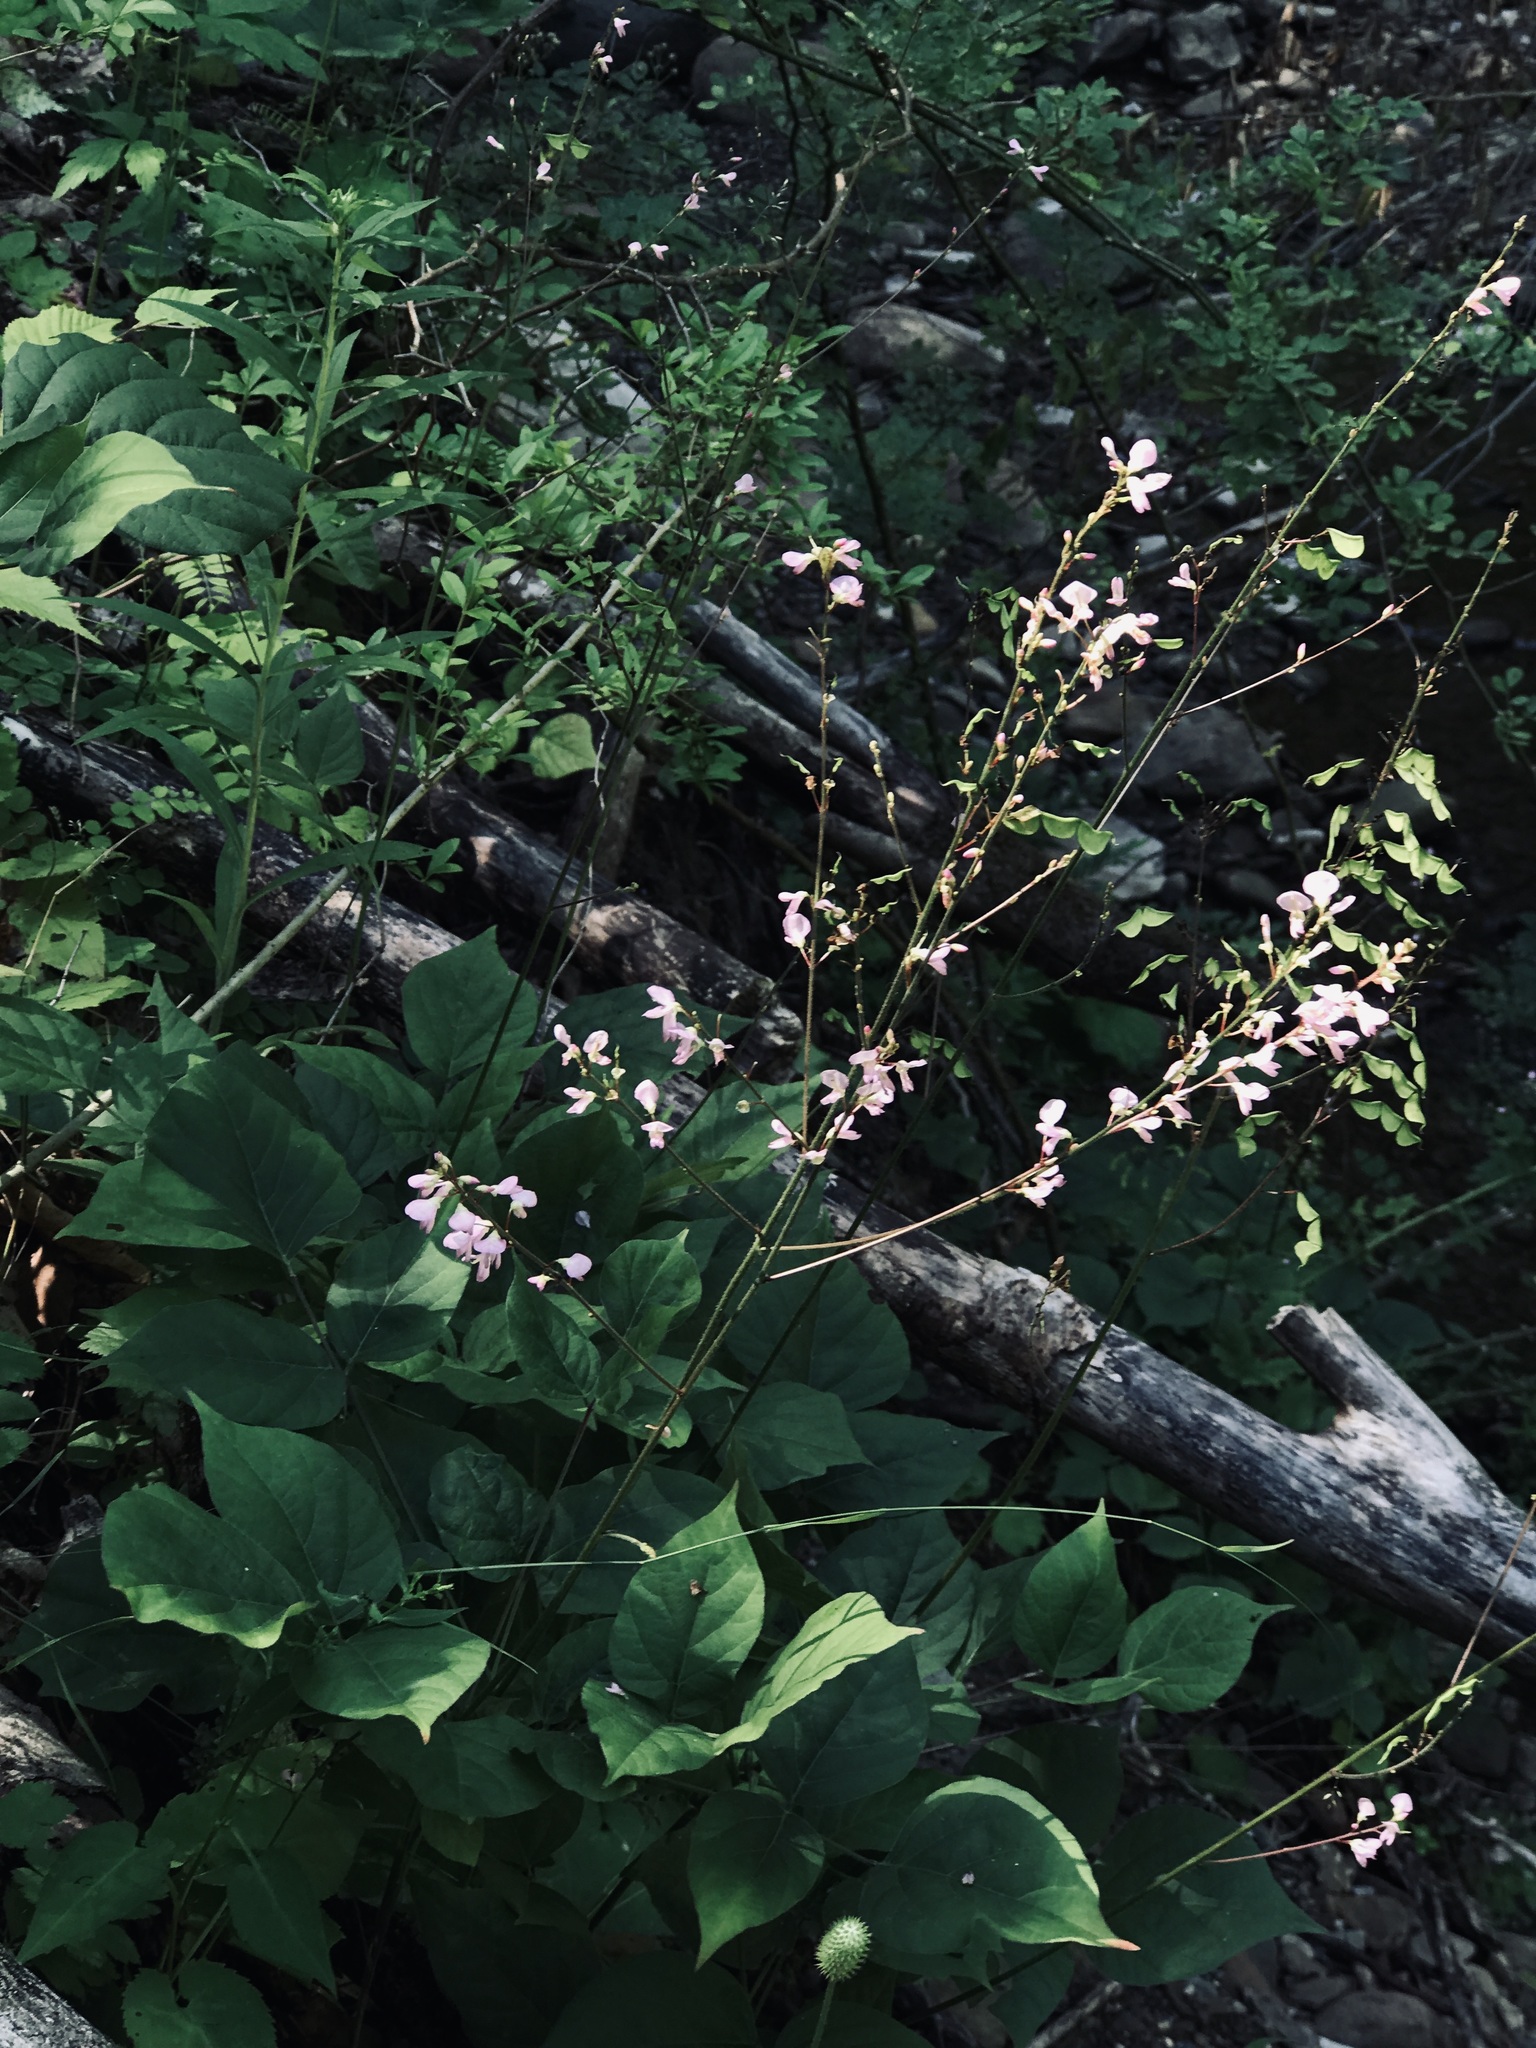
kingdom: Plantae
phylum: Tracheophyta
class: Magnoliopsida
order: Fabales
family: Fabaceae
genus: Hylodesmum
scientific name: Hylodesmum glutinosum
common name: Clustered-leaved tick-trefoil
